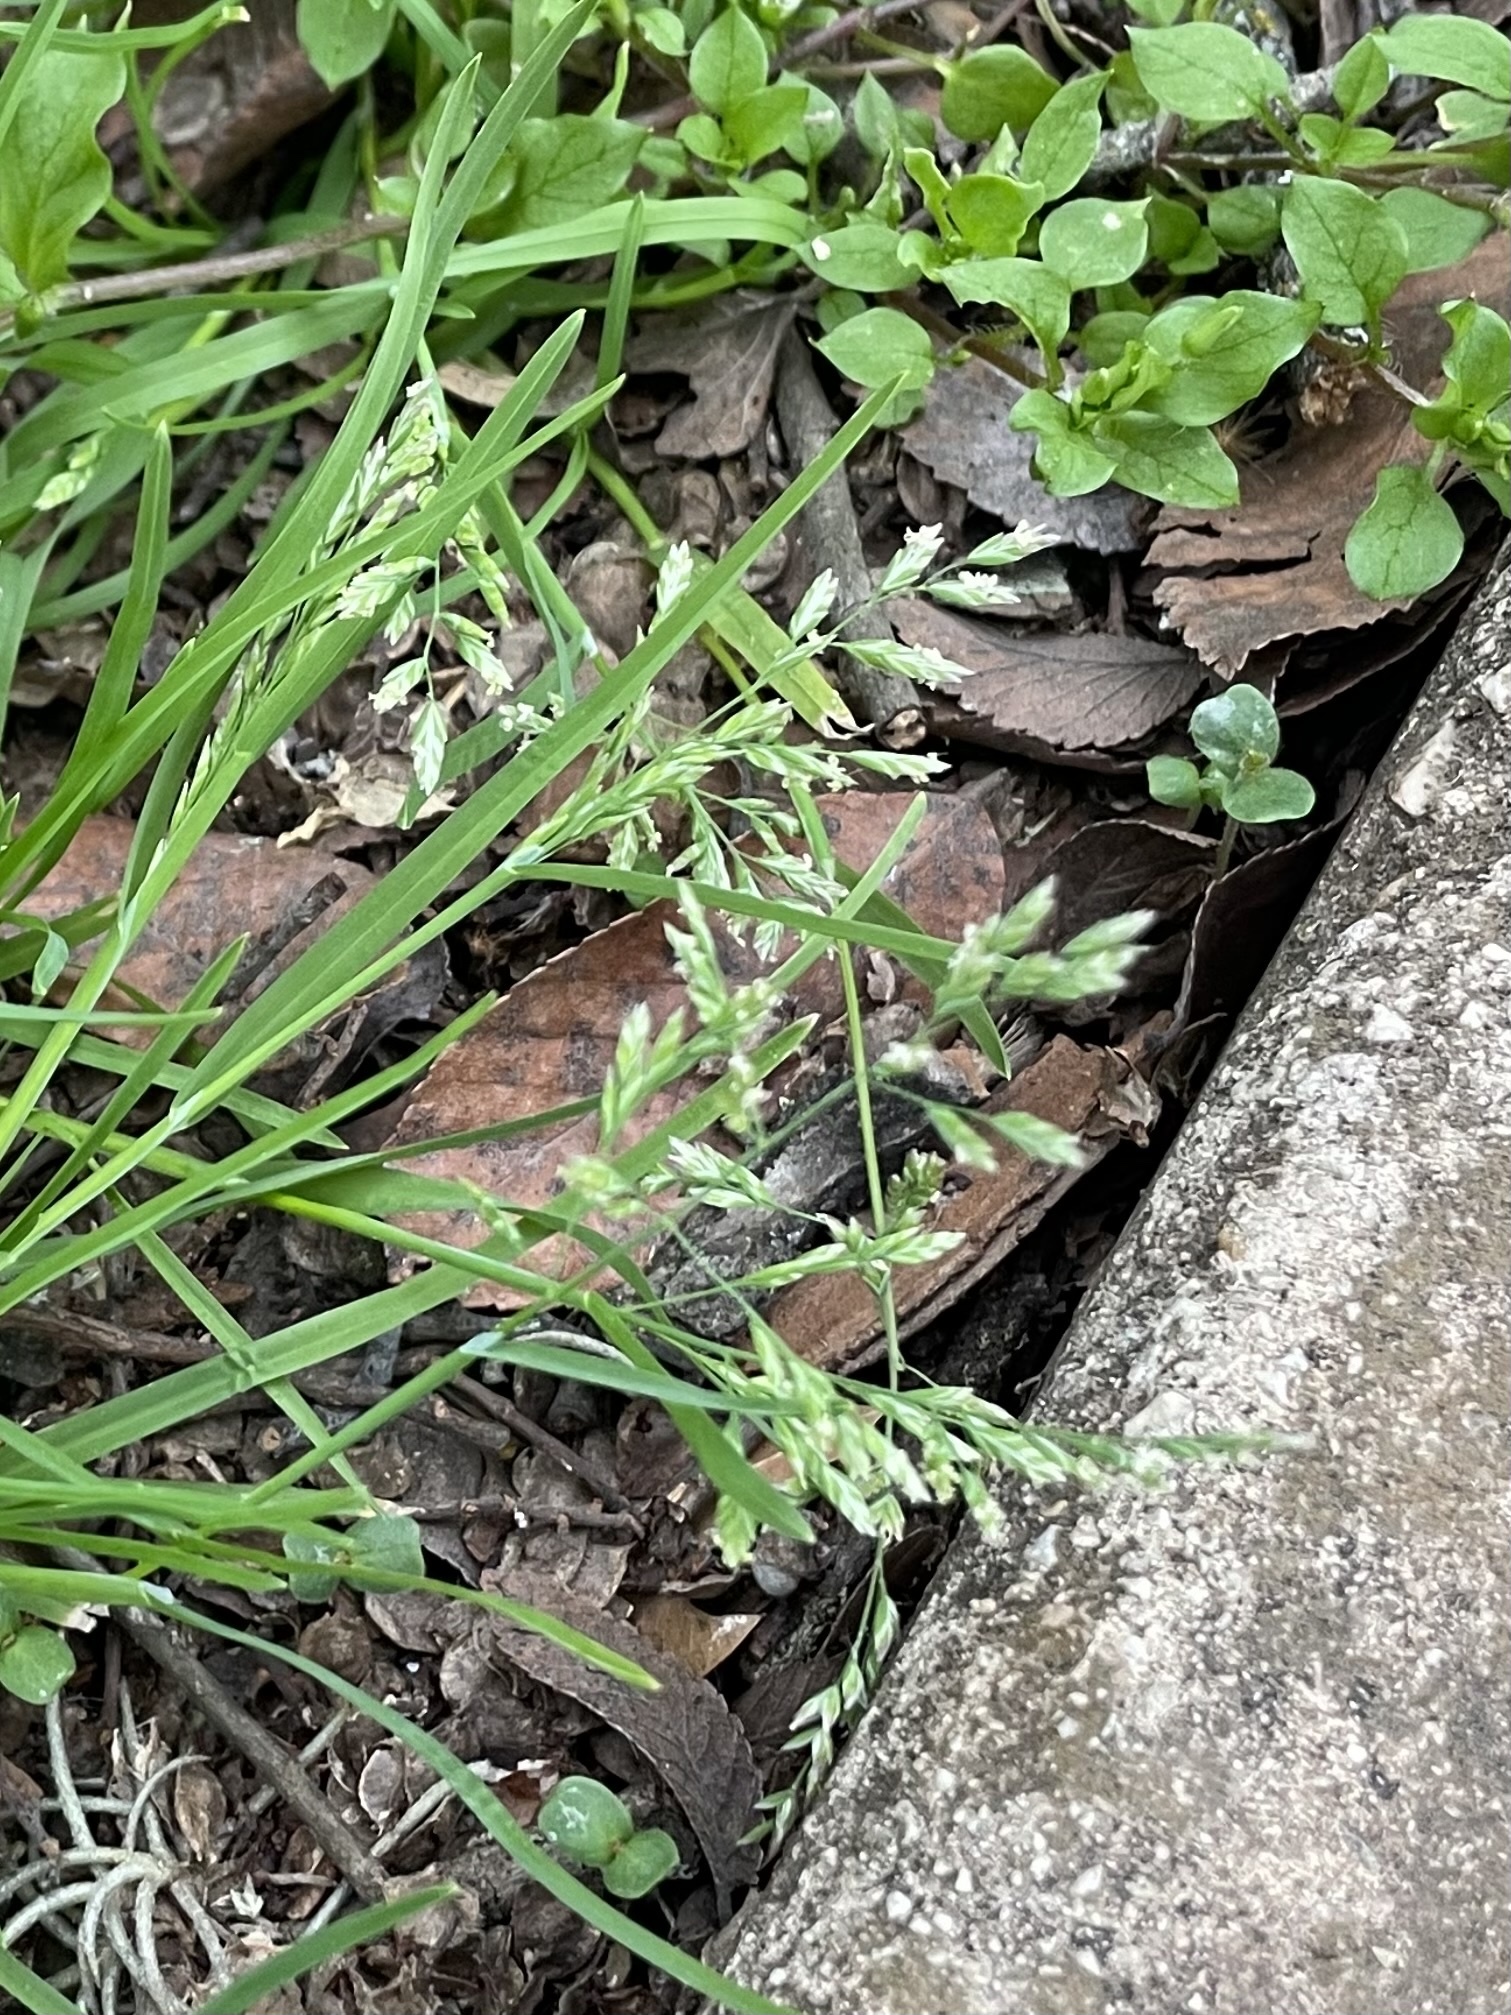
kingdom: Plantae
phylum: Tracheophyta
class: Liliopsida
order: Poales
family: Poaceae
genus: Poa
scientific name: Poa annua
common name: Annual bluegrass
